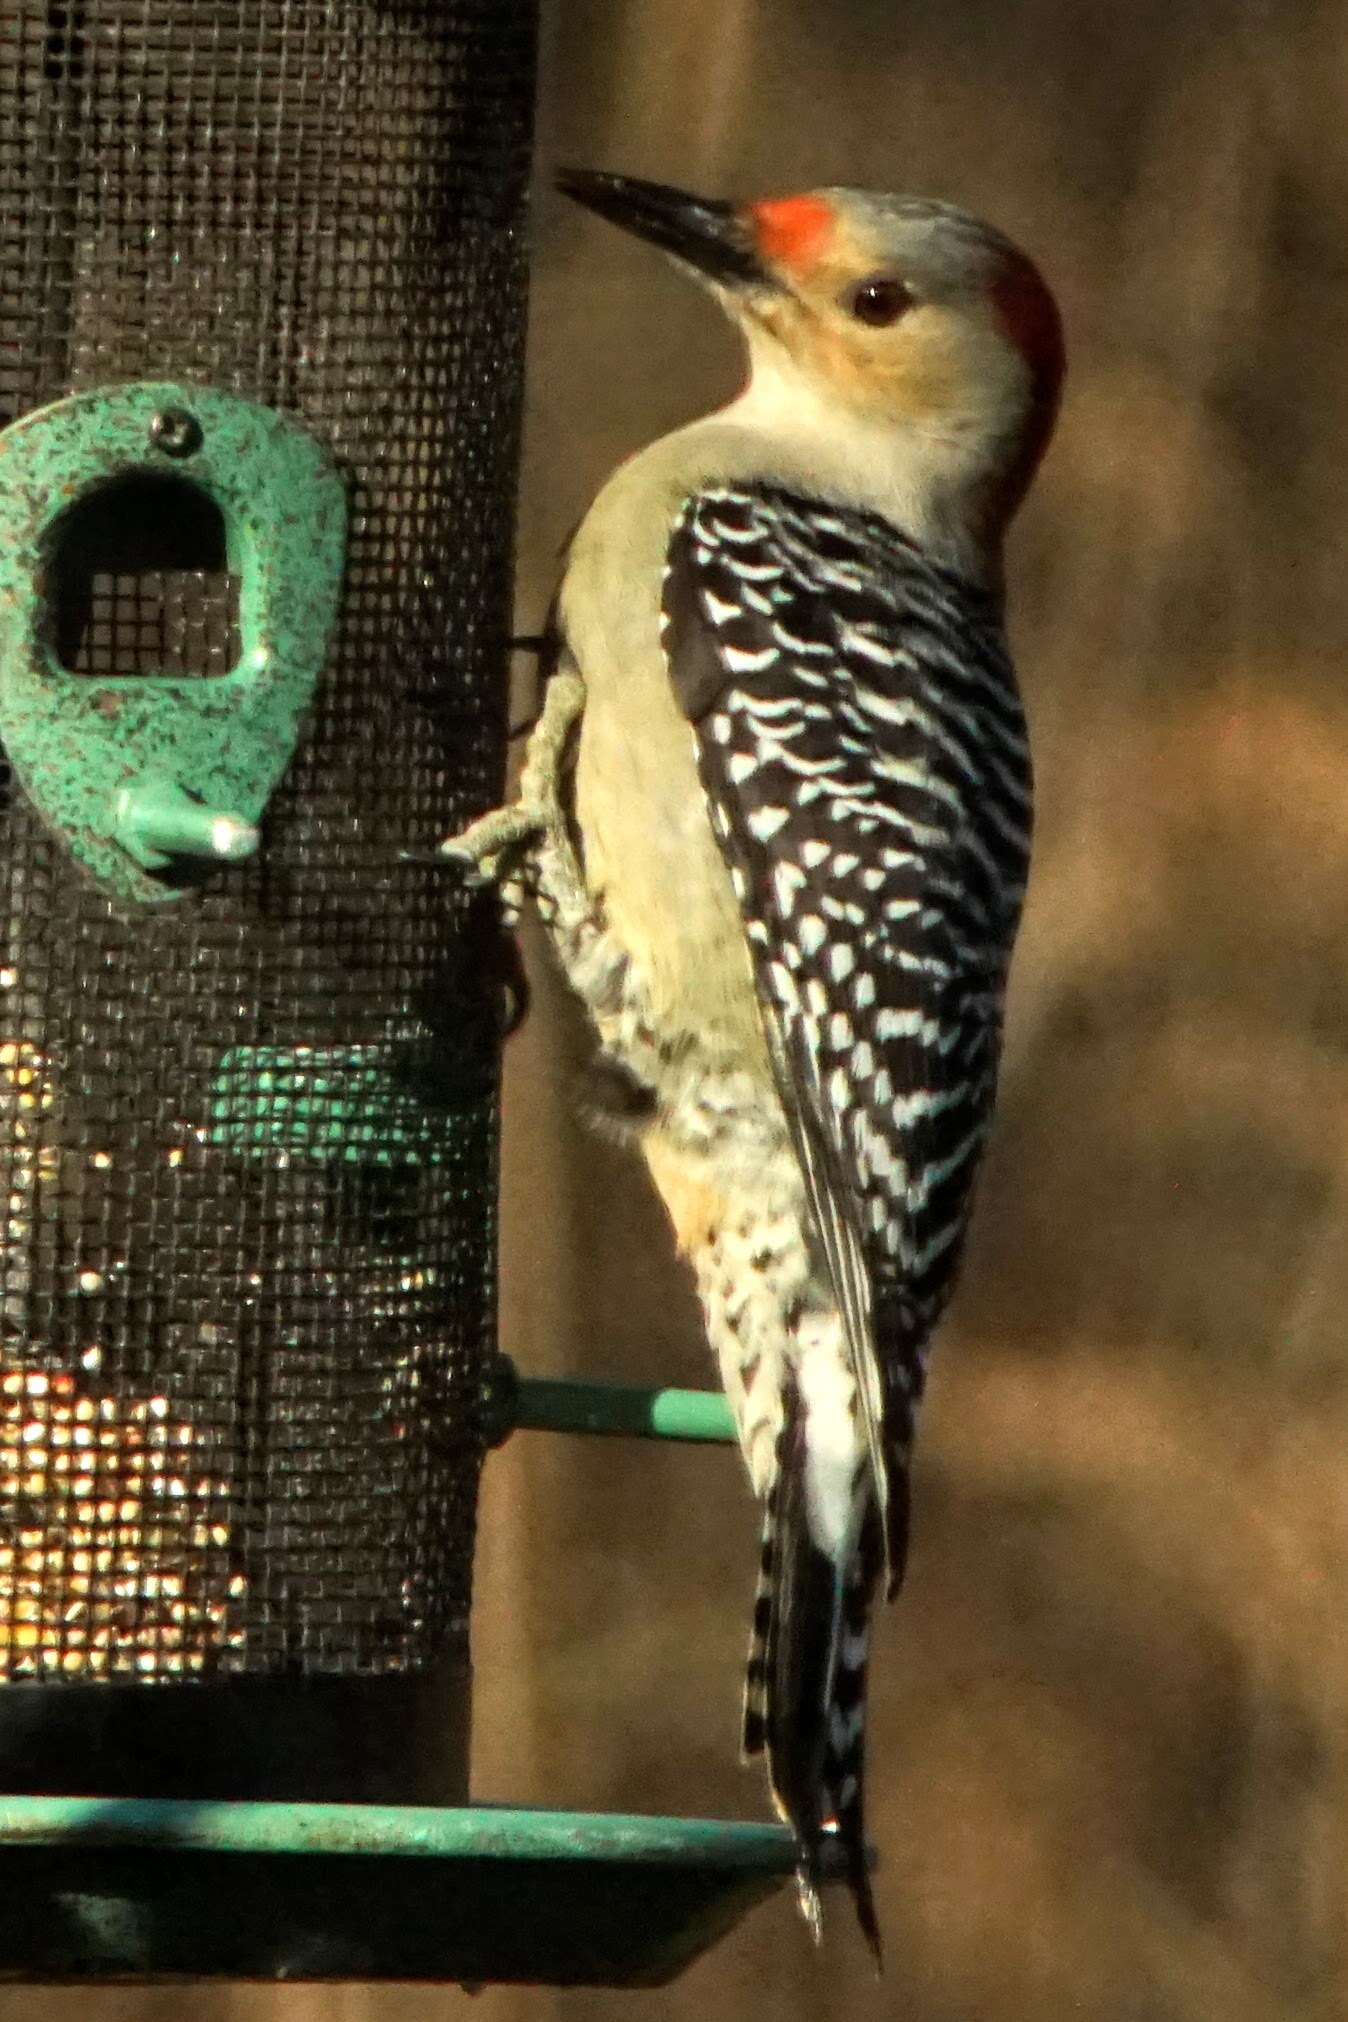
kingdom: Animalia
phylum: Chordata
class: Aves
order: Piciformes
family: Picidae
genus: Melanerpes
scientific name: Melanerpes carolinus
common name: Red-bellied woodpecker
